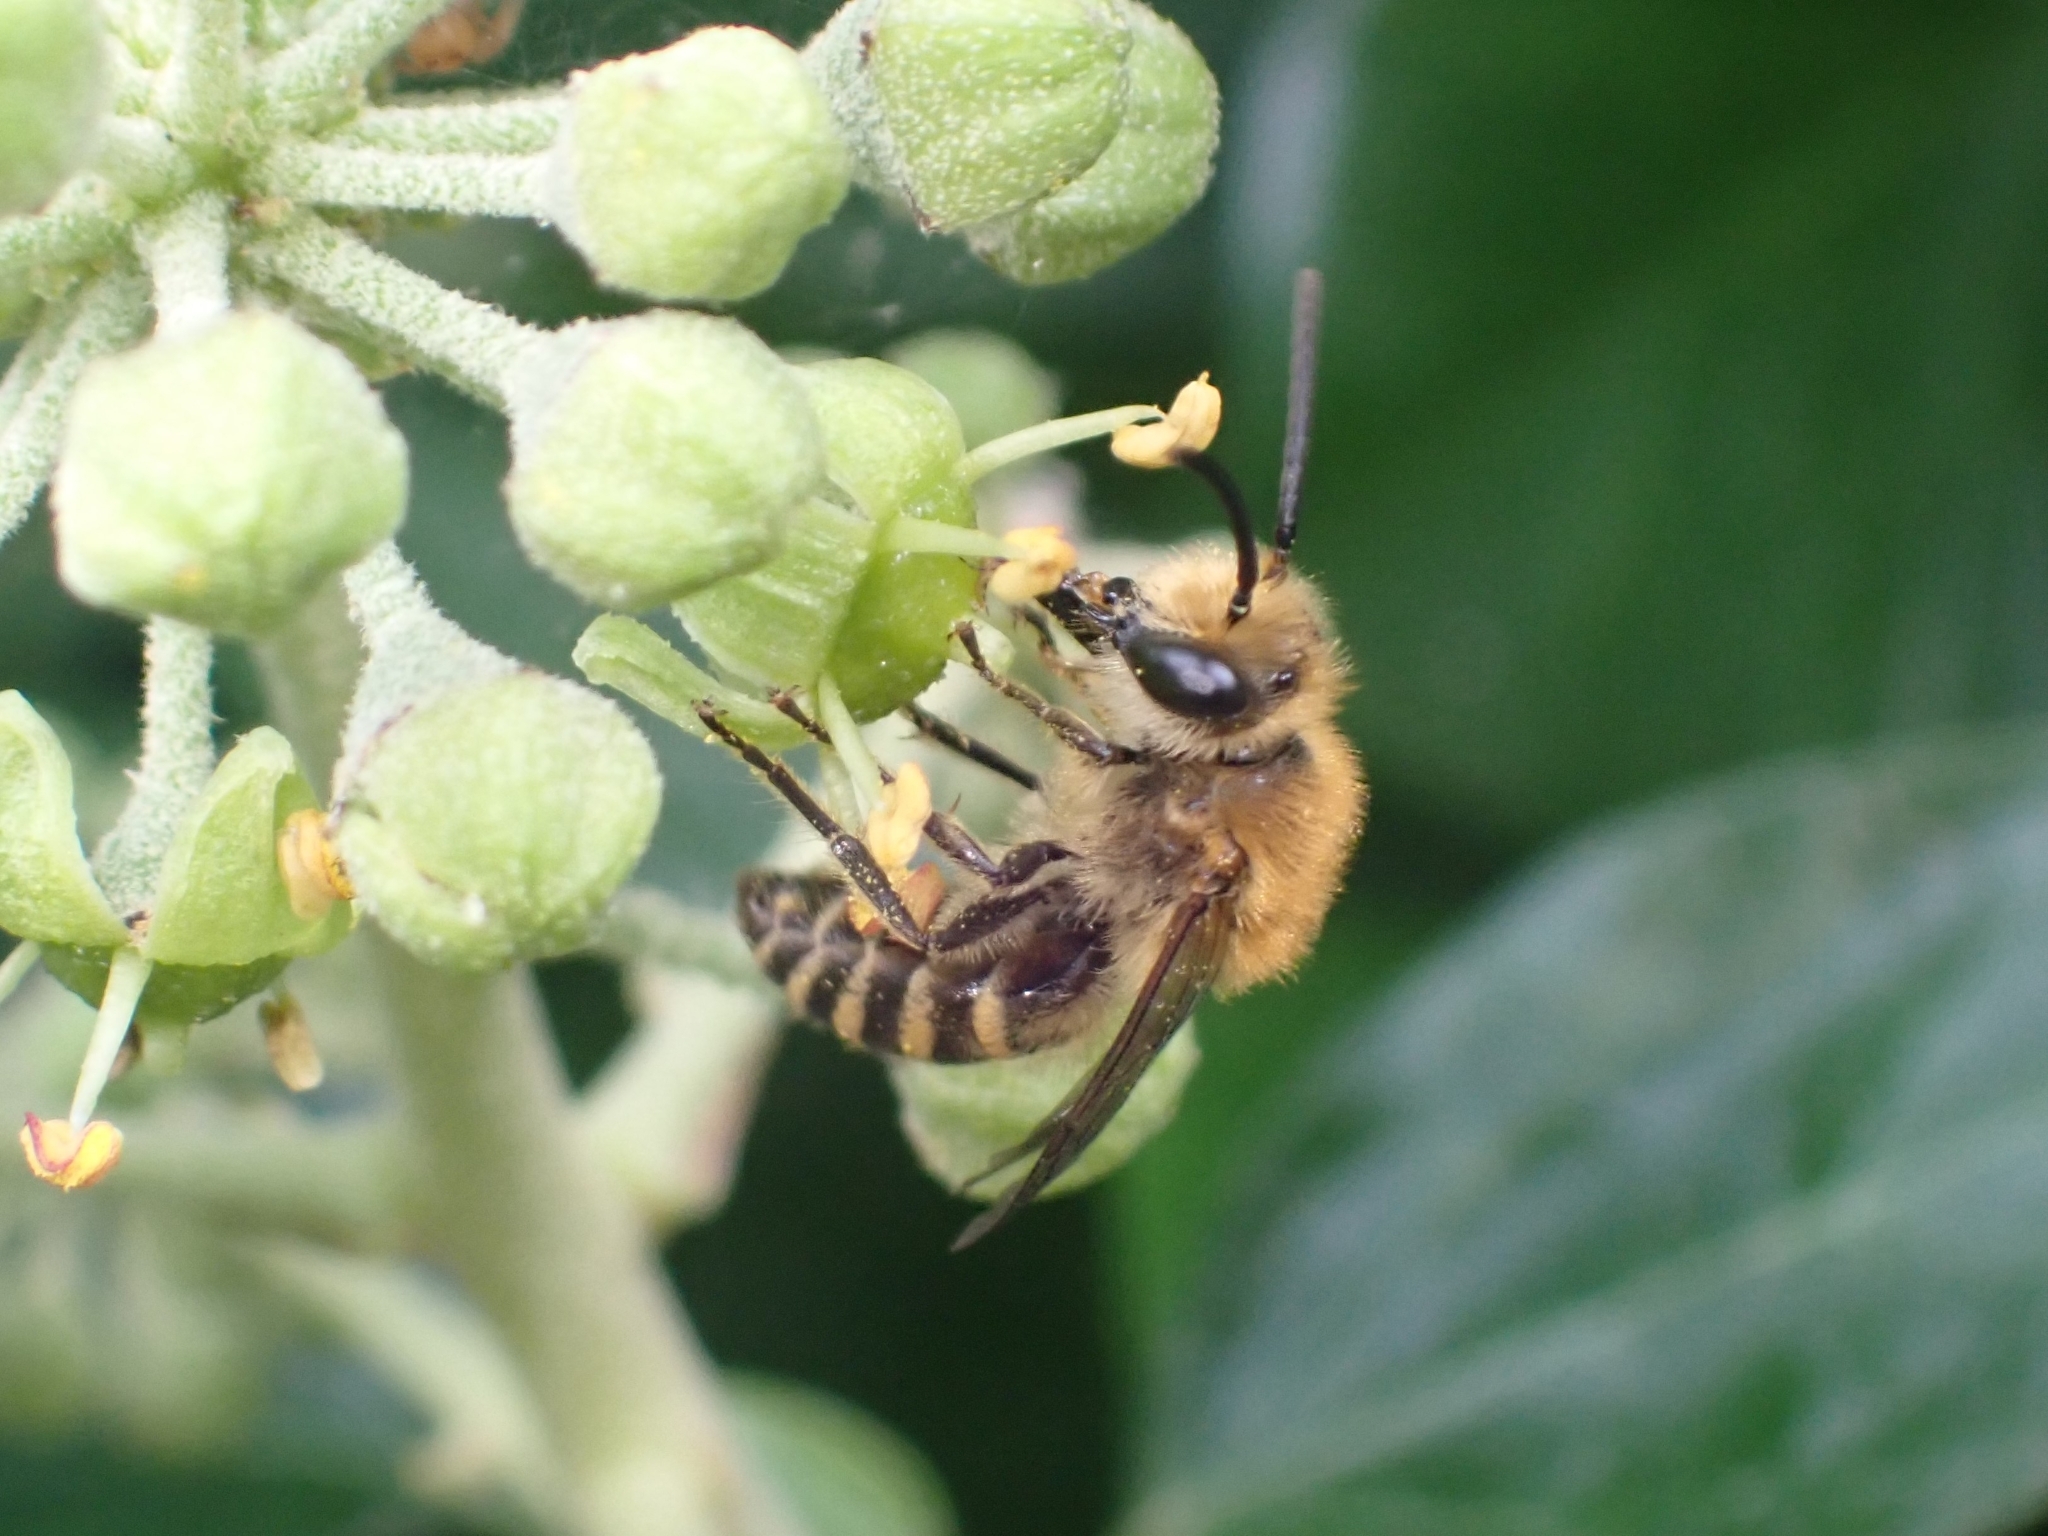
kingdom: Animalia
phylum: Arthropoda
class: Insecta
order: Hymenoptera
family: Colletidae
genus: Colletes
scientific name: Colletes hederae
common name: Ivy bee
